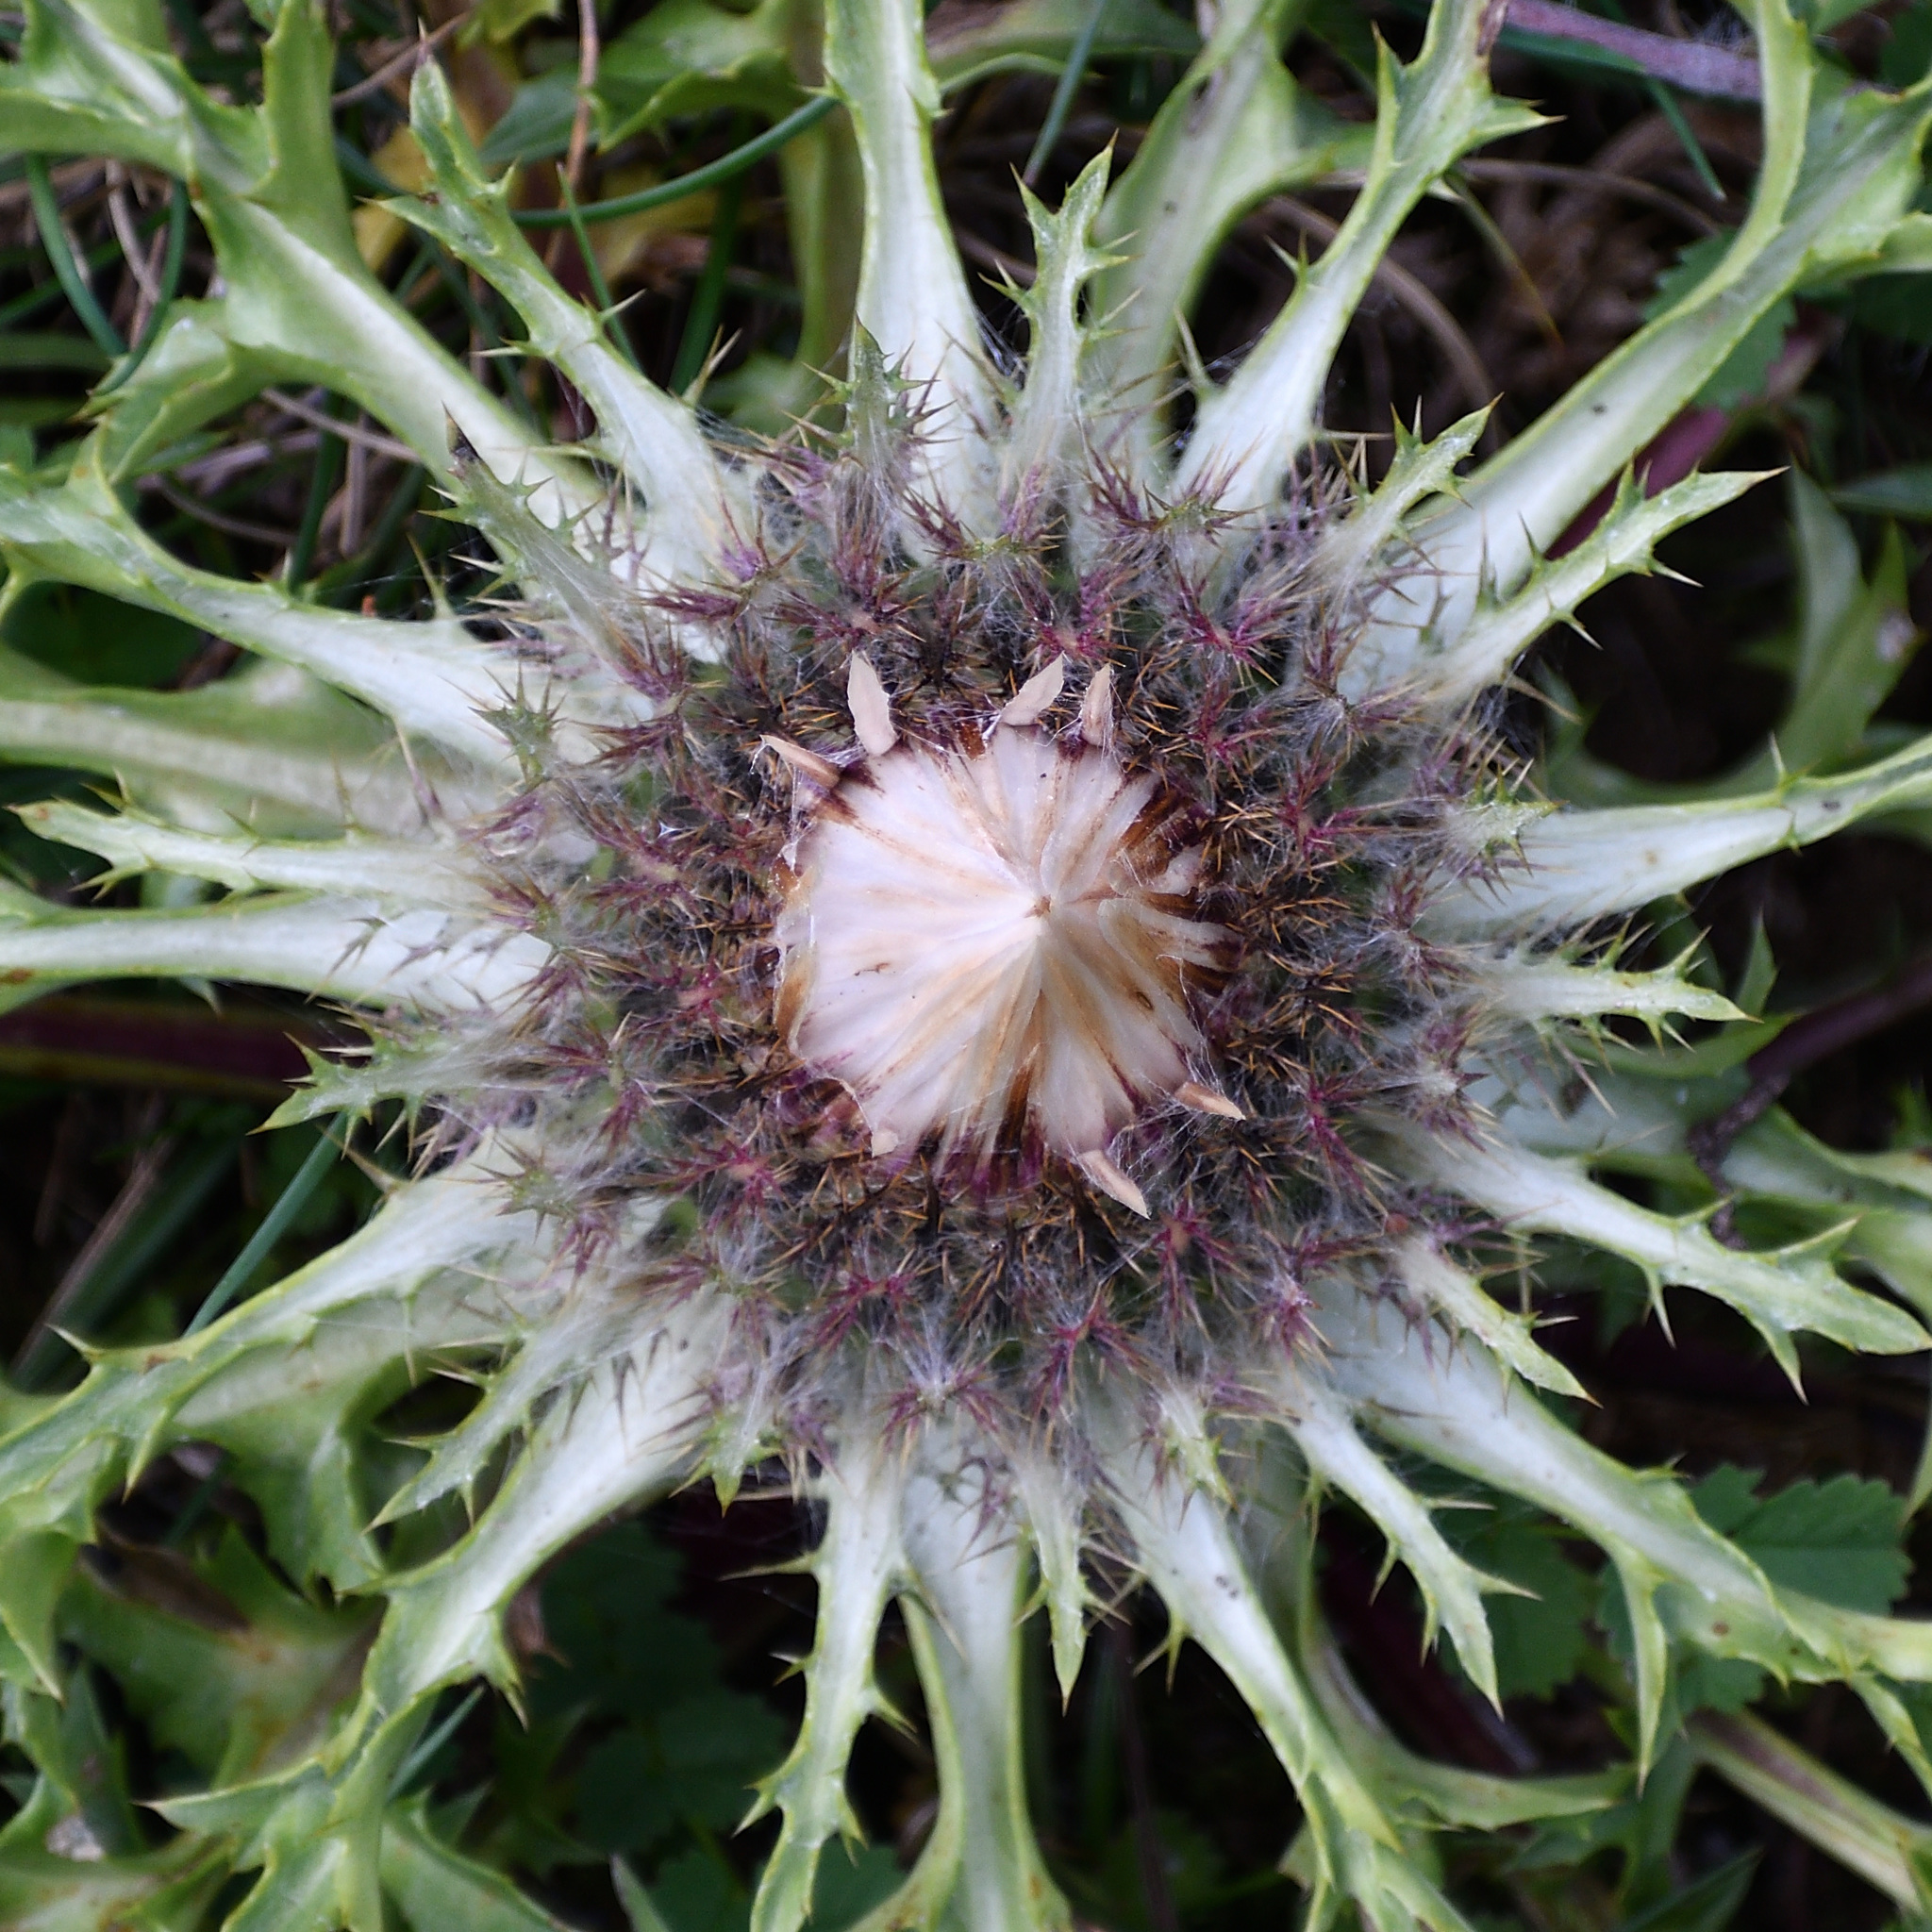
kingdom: Plantae
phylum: Tracheophyta
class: Magnoliopsida
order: Asterales
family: Asteraceae
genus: Carlina
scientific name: Carlina acaulis
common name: Stemless carline thistle
